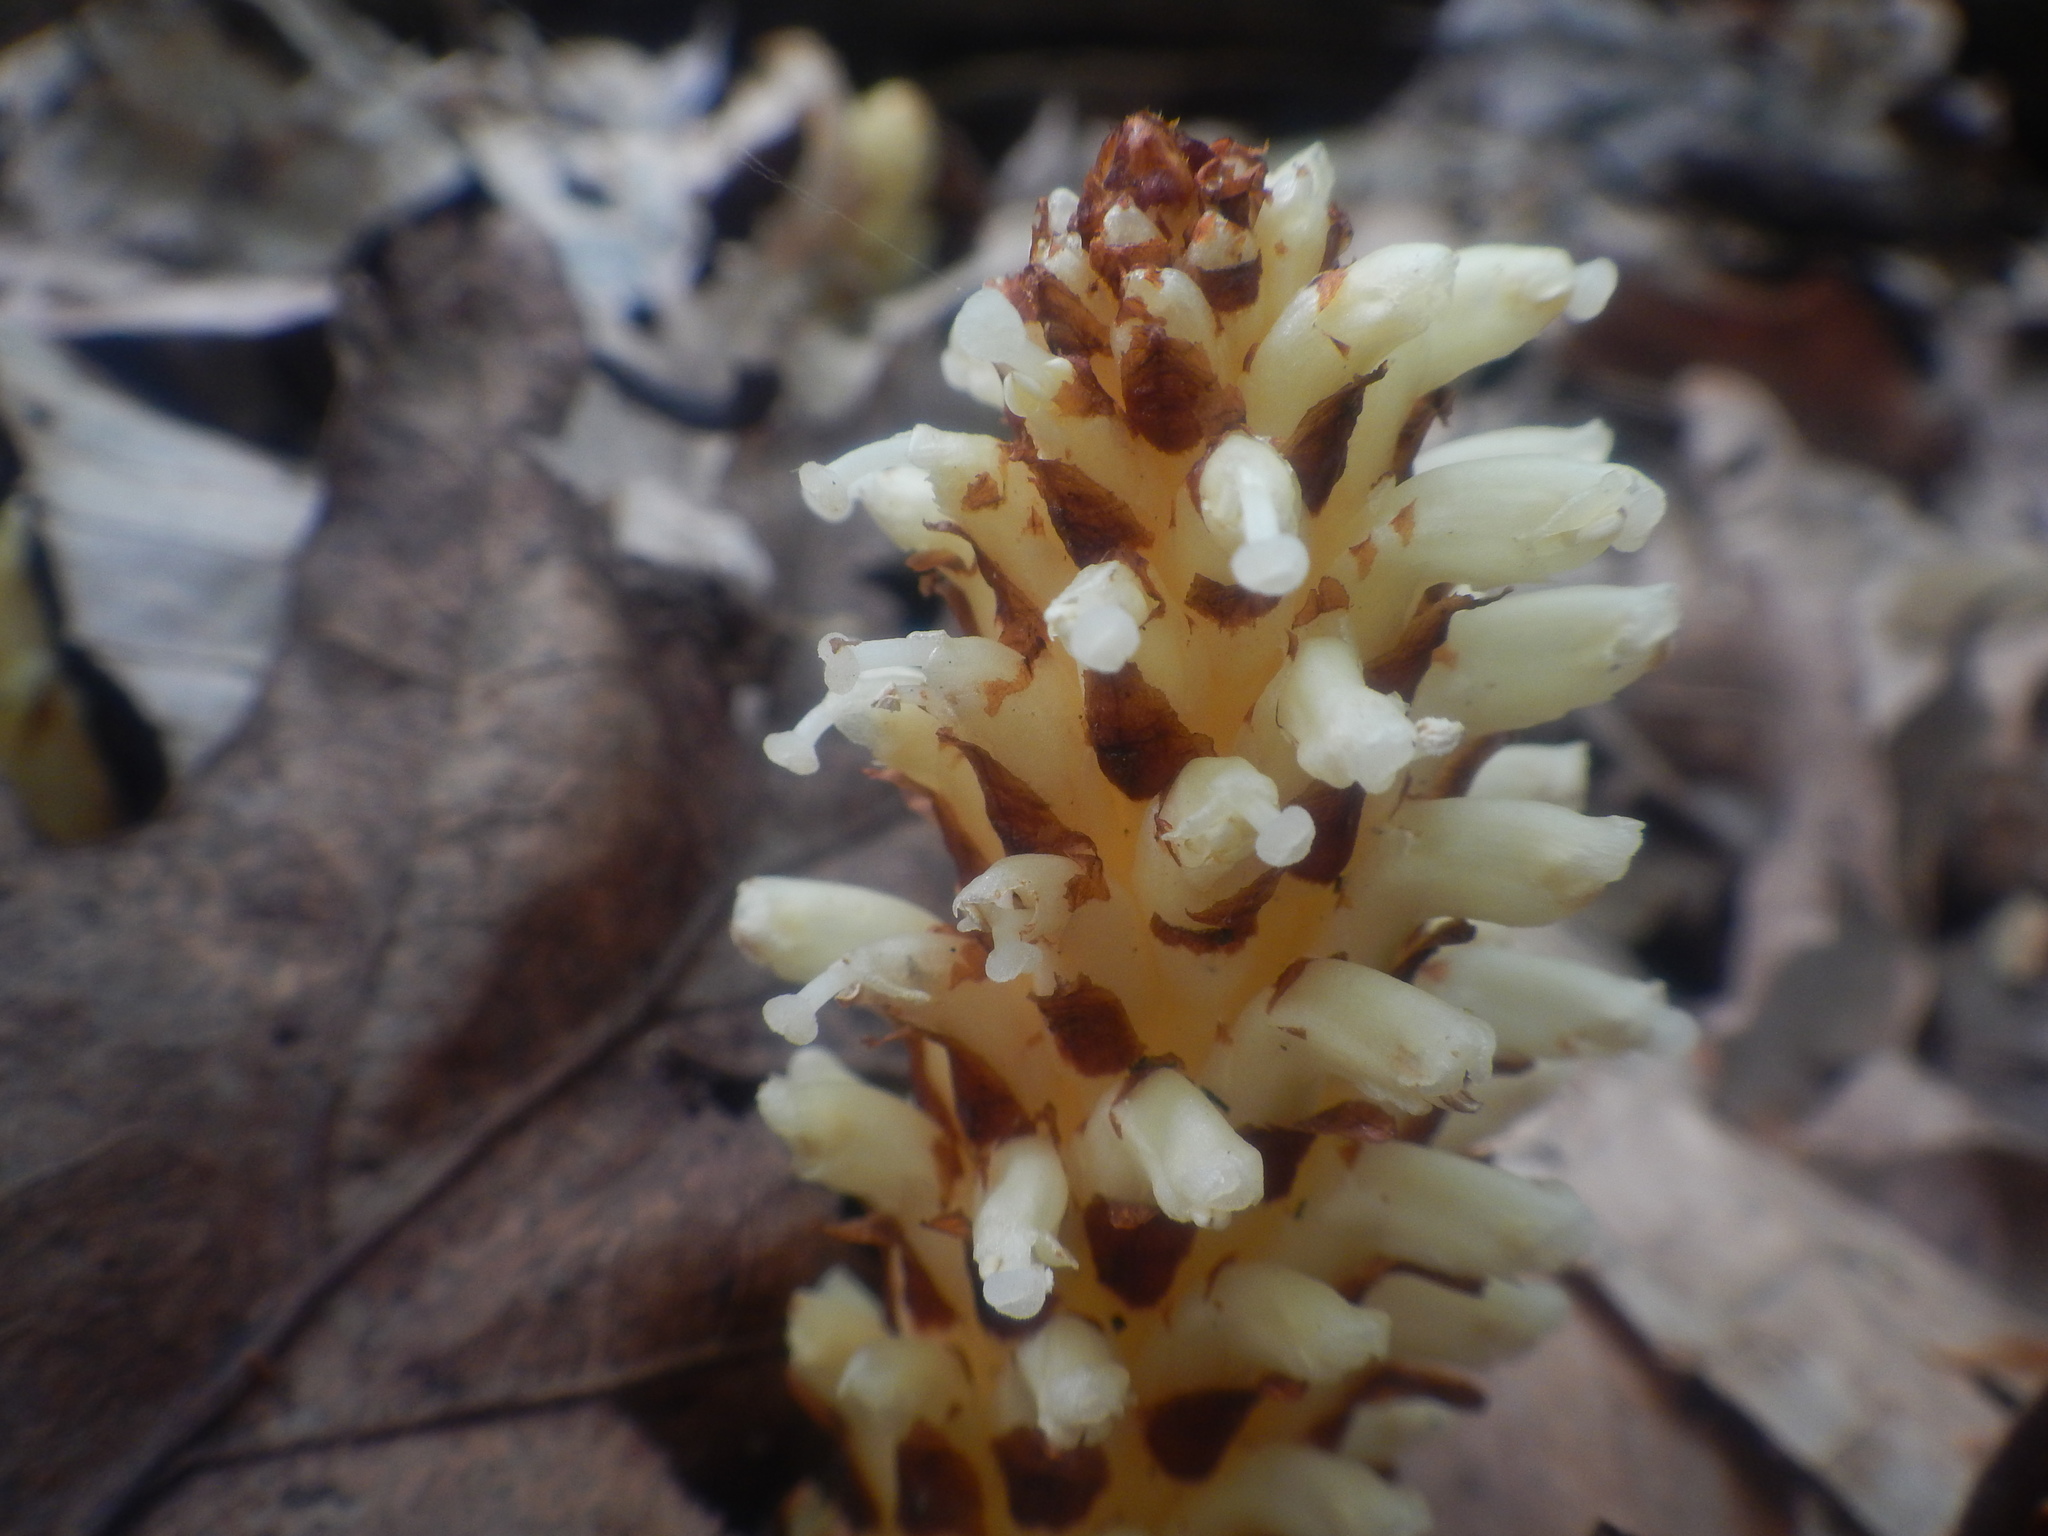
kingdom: Plantae
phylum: Tracheophyta
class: Magnoliopsida
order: Lamiales
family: Orobanchaceae
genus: Conopholis
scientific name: Conopholis americana
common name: American cancer-root
